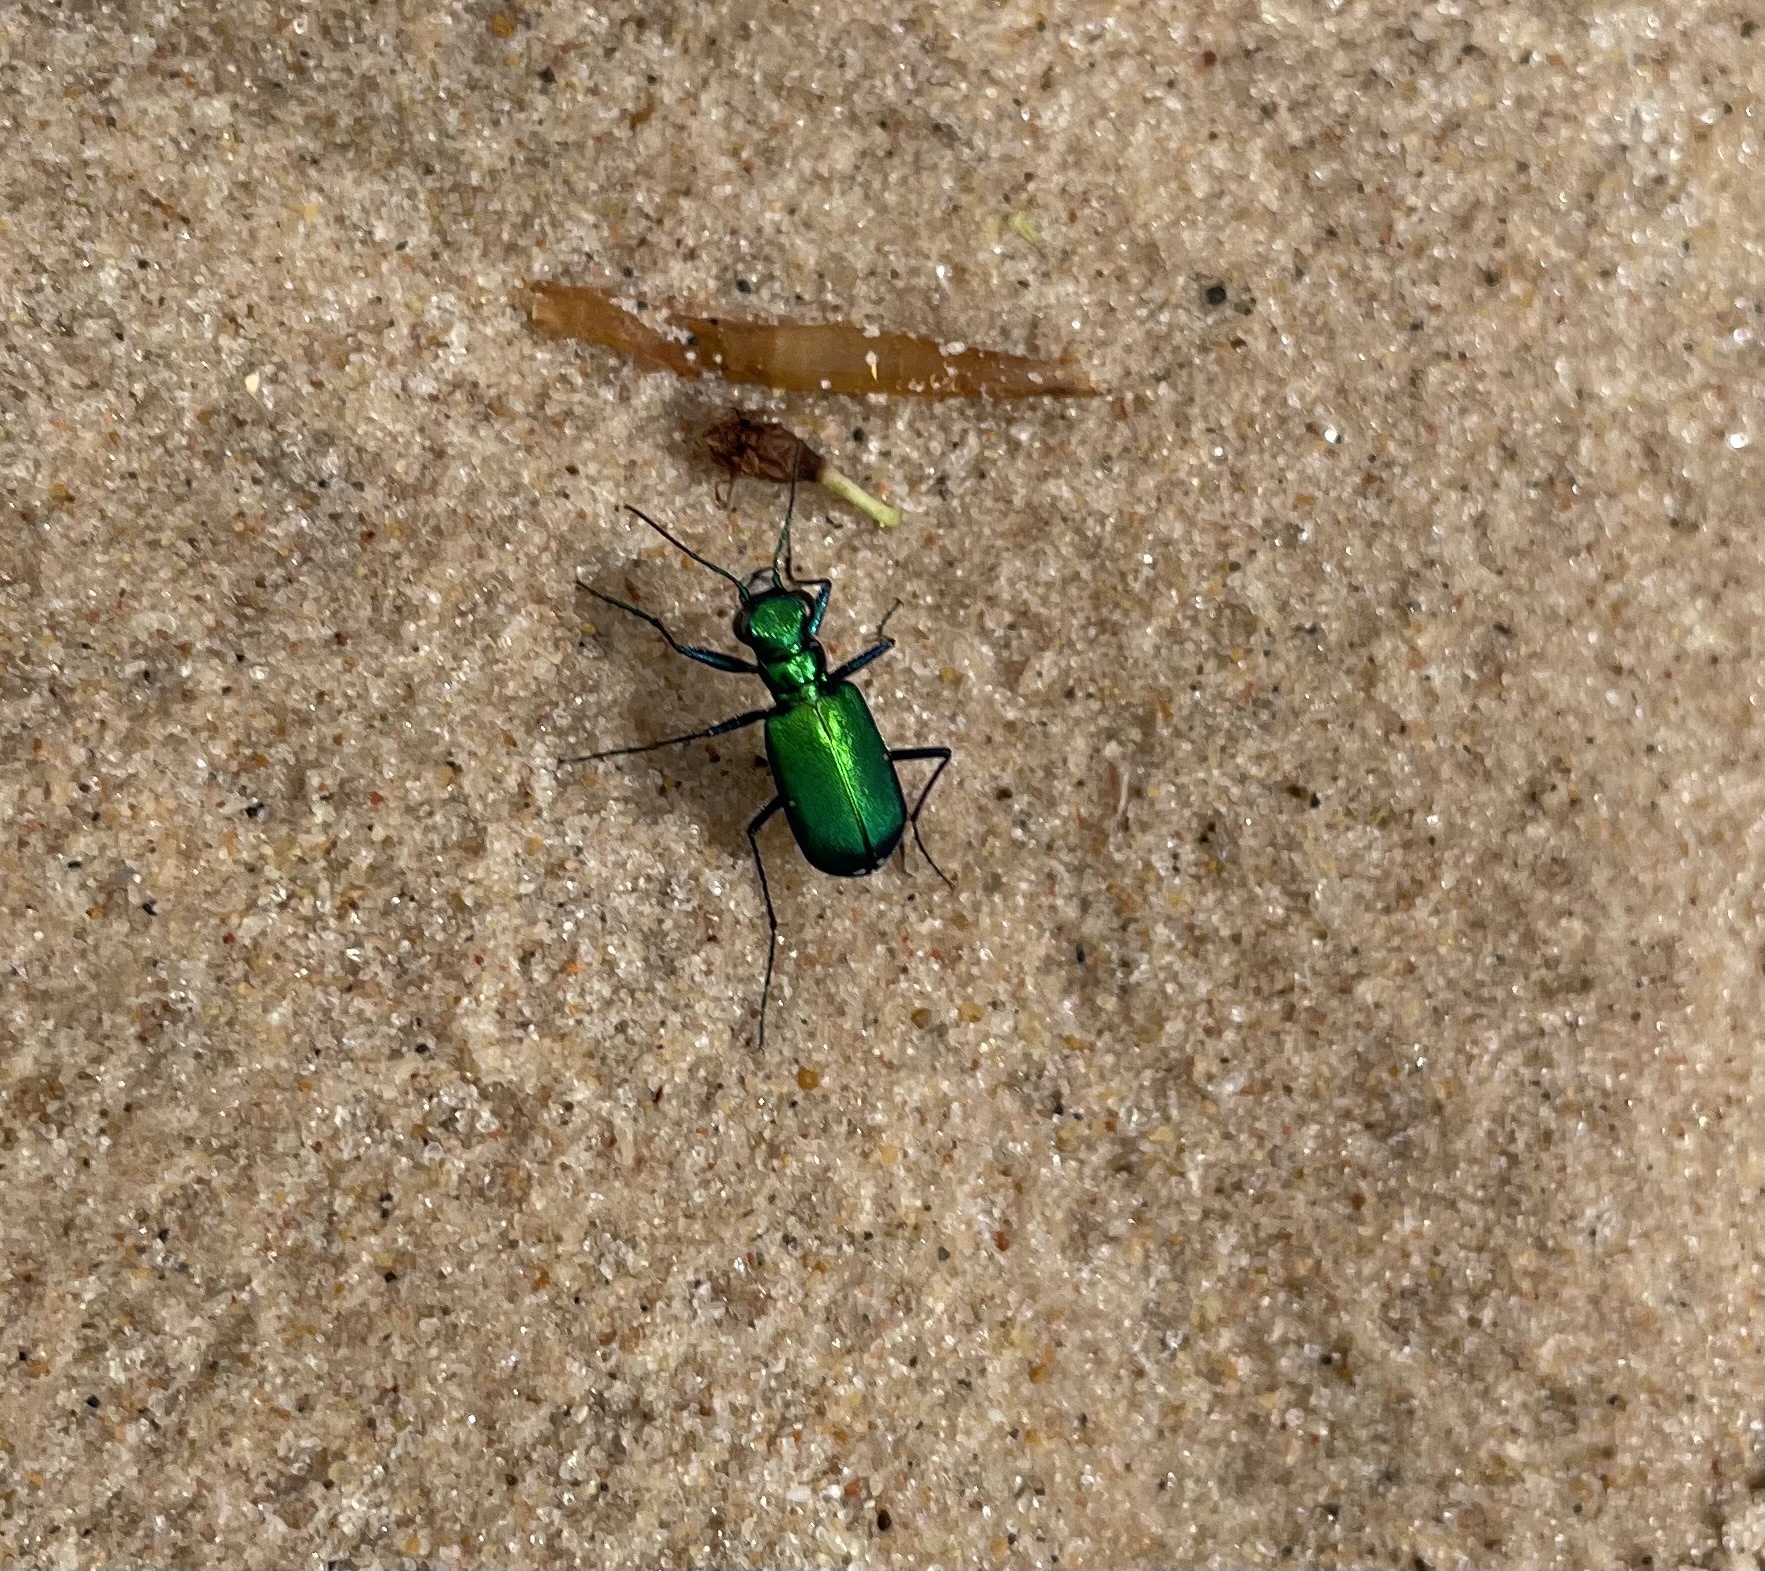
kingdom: Animalia
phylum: Arthropoda
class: Insecta
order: Coleoptera
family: Carabidae
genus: Cicindela
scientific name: Cicindela sexguttata
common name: Six-spotted tiger beetle
